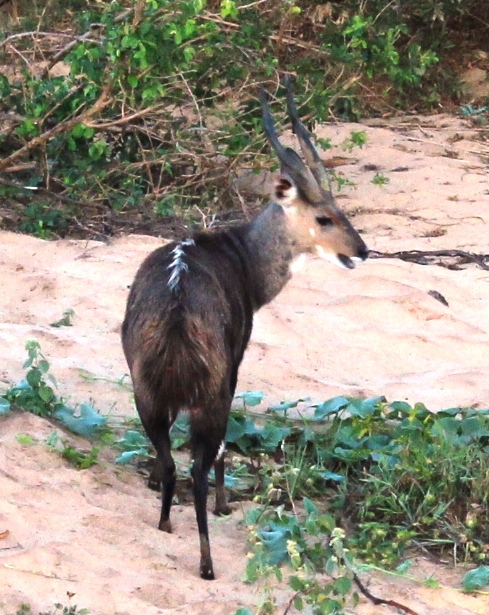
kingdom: Animalia
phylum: Chordata
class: Mammalia
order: Artiodactyla
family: Bovidae
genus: Tragelaphus
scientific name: Tragelaphus scriptus
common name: Bushbuck
